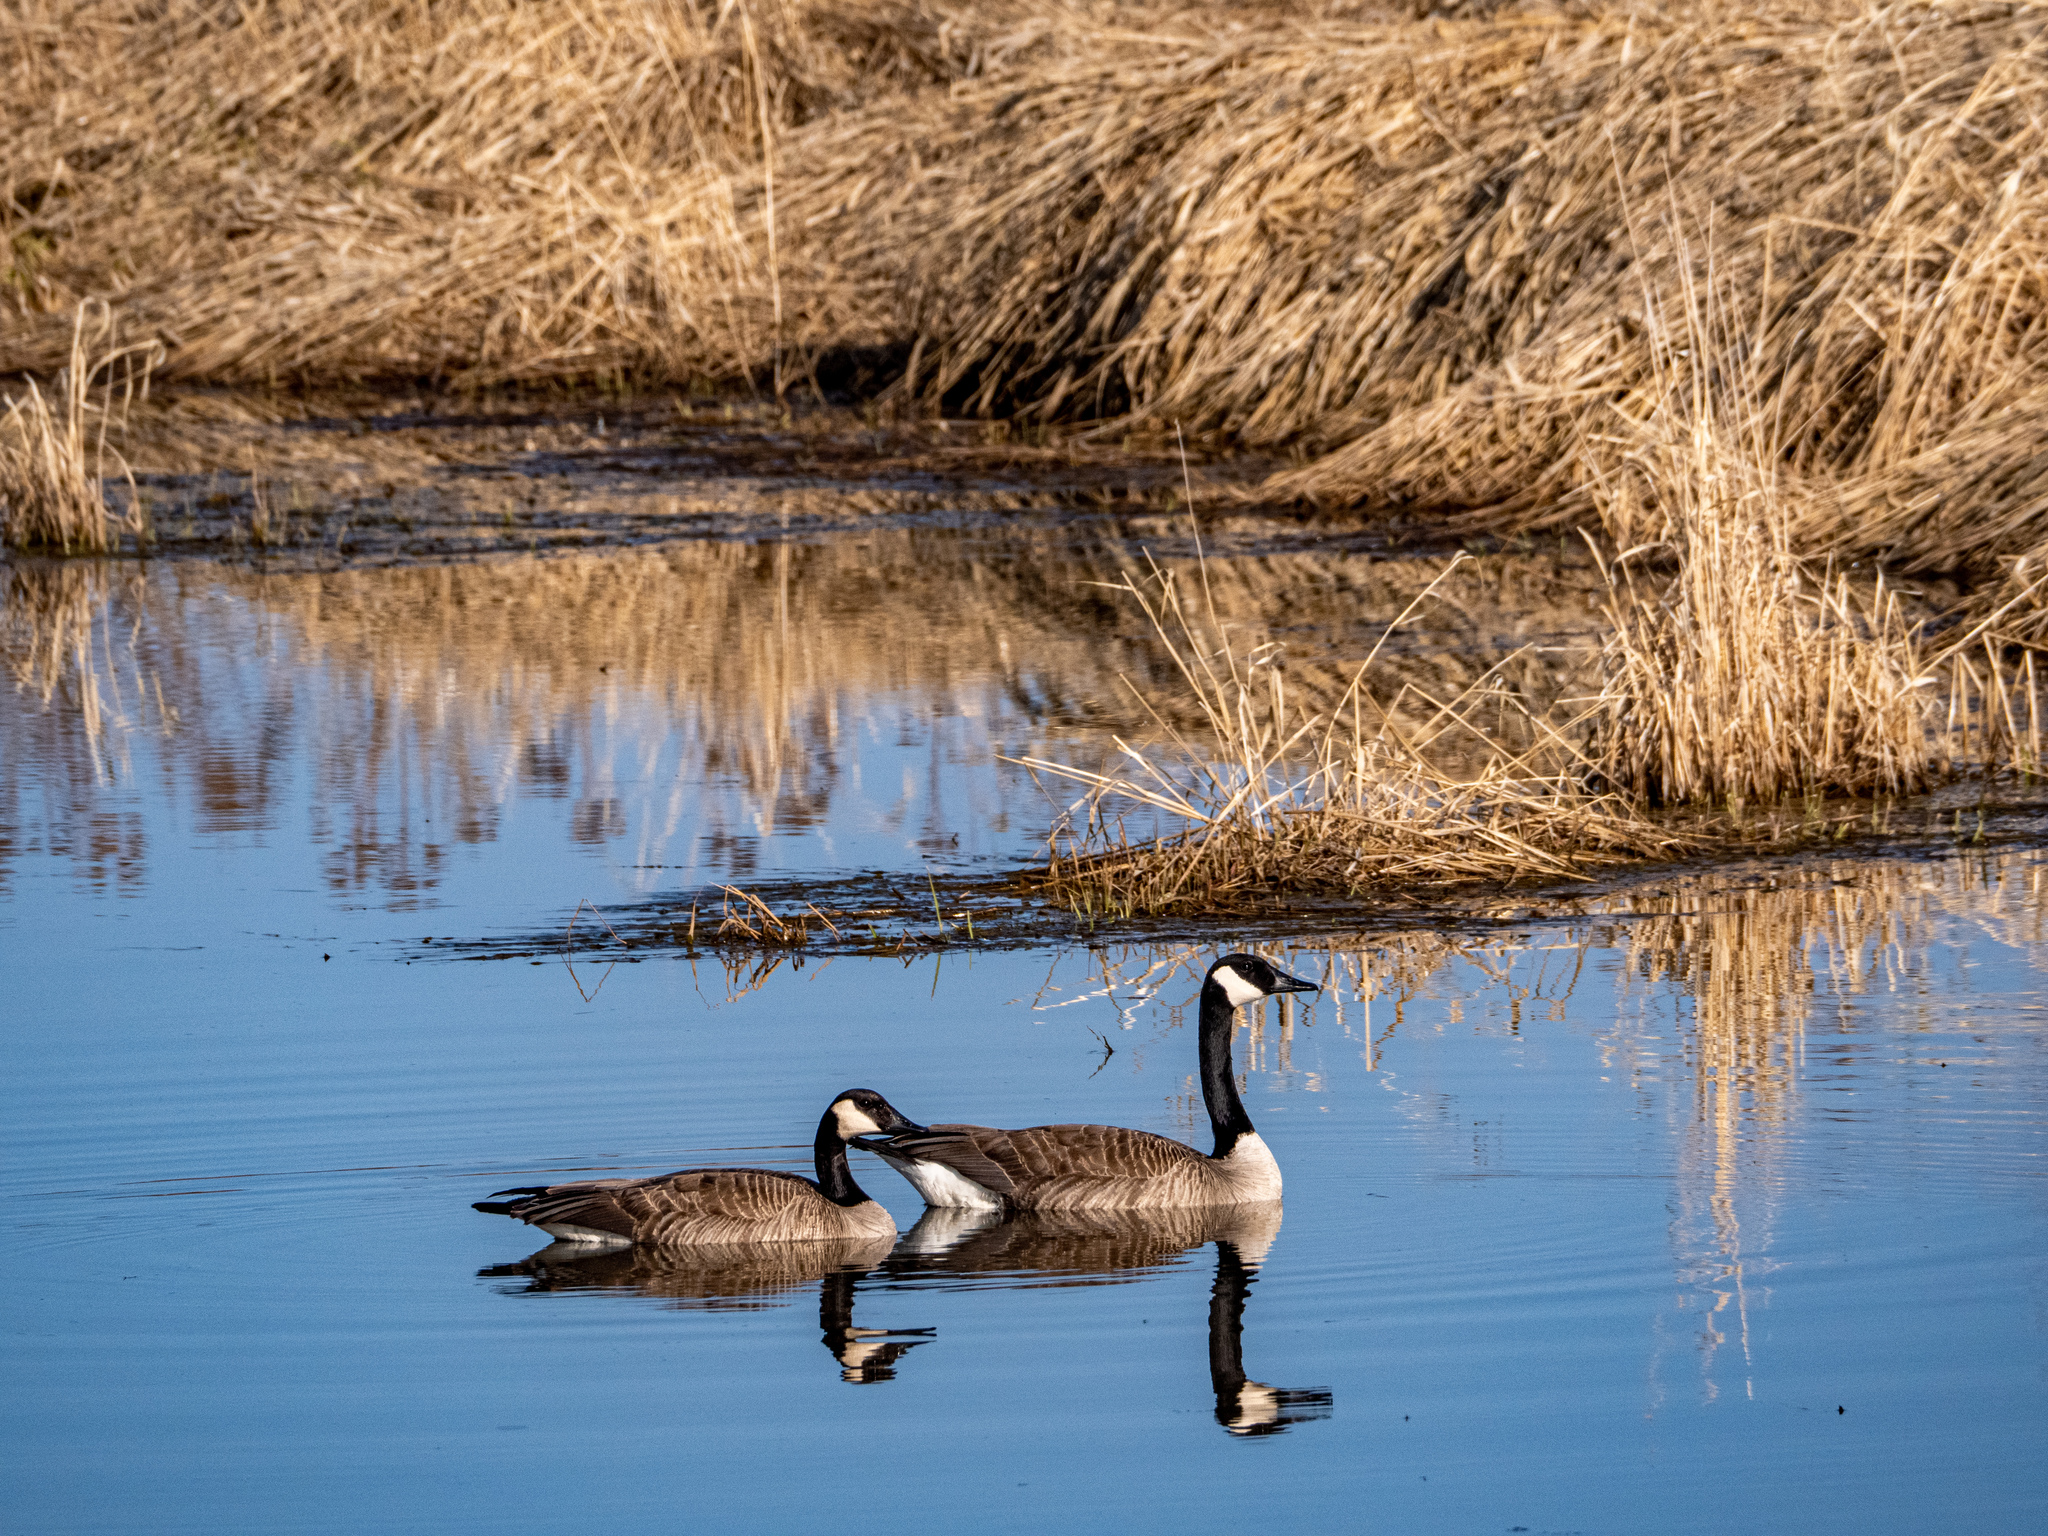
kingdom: Animalia
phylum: Chordata
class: Aves
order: Anseriformes
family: Anatidae
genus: Branta
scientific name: Branta canadensis
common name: Canada goose
